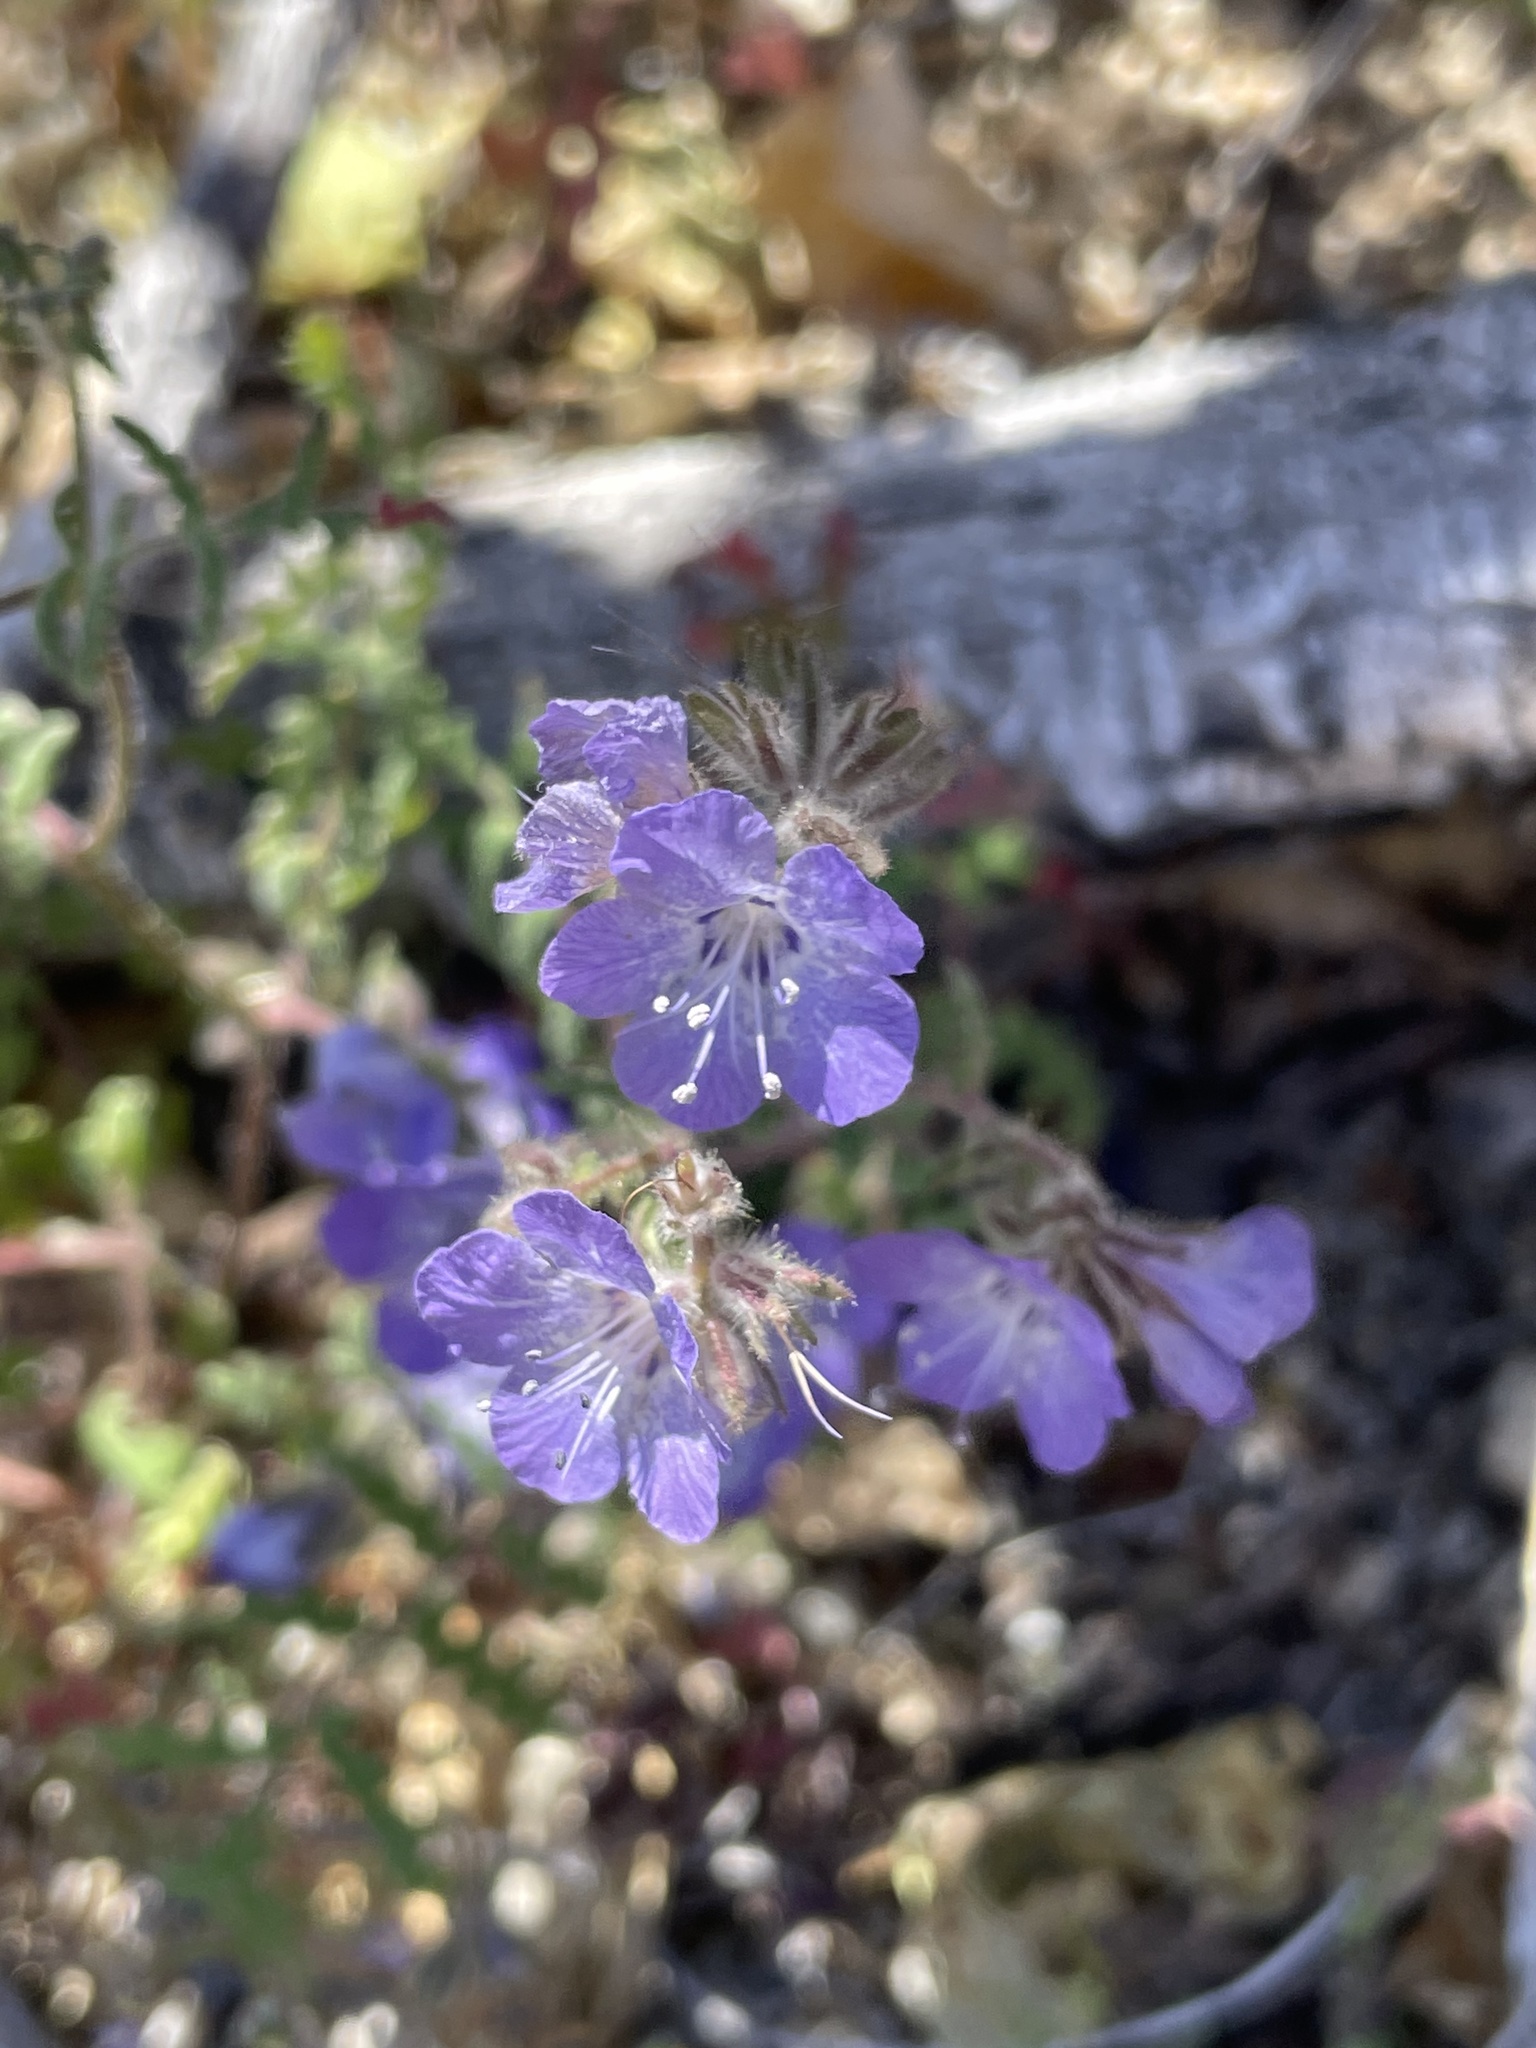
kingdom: Plantae
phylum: Tracheophyta
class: Magnoliopsida
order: Boraginales
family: Hydrophyllaceae
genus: Phacelia
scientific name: Phacelia distans
